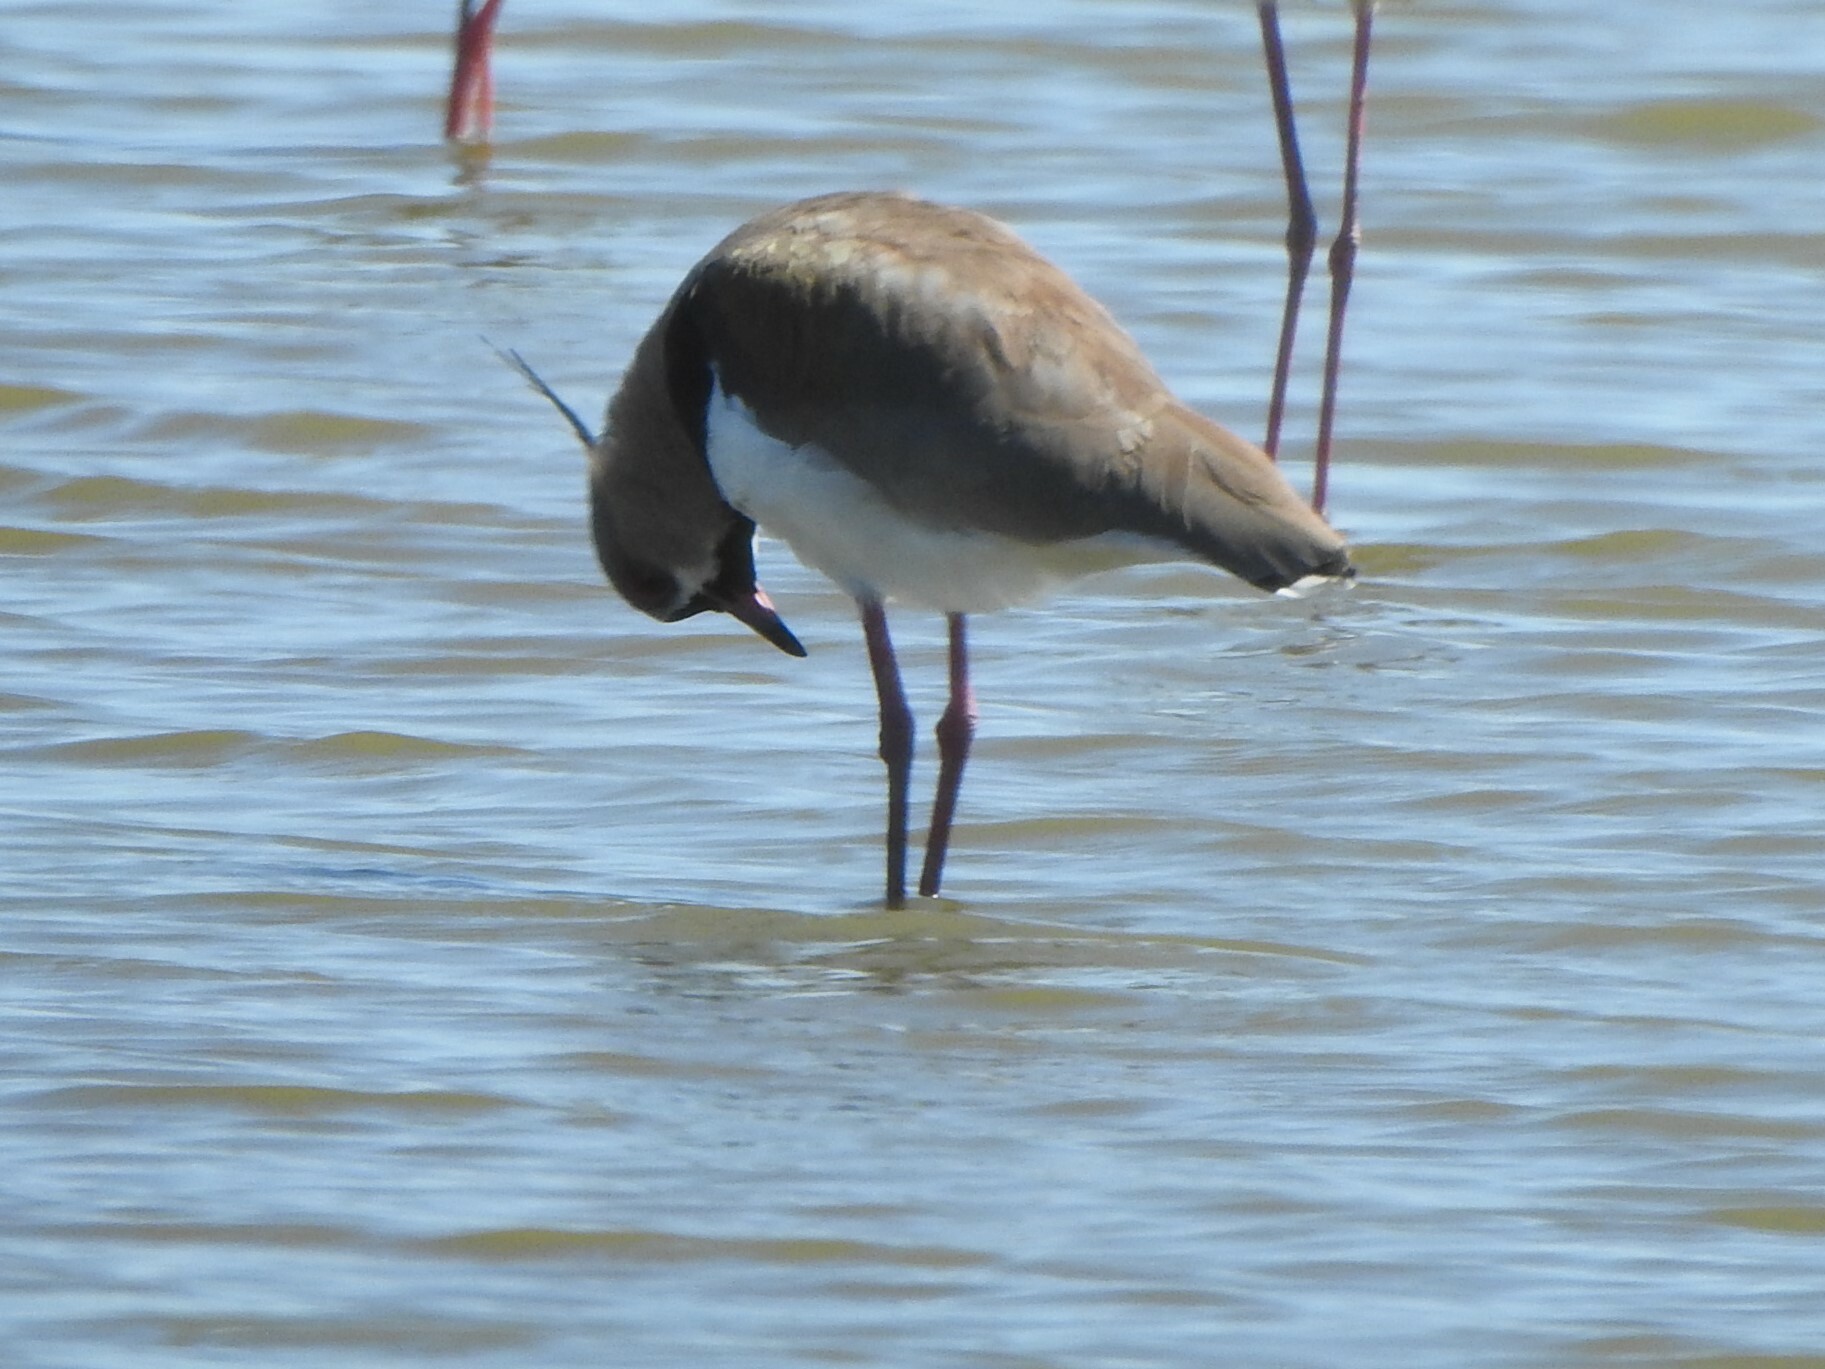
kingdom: Animalia
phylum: Chordata
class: Aves
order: Charadriiformes
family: Charadriidae
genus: Vanellus
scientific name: Vanellus chilensis
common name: Southern lapwing
